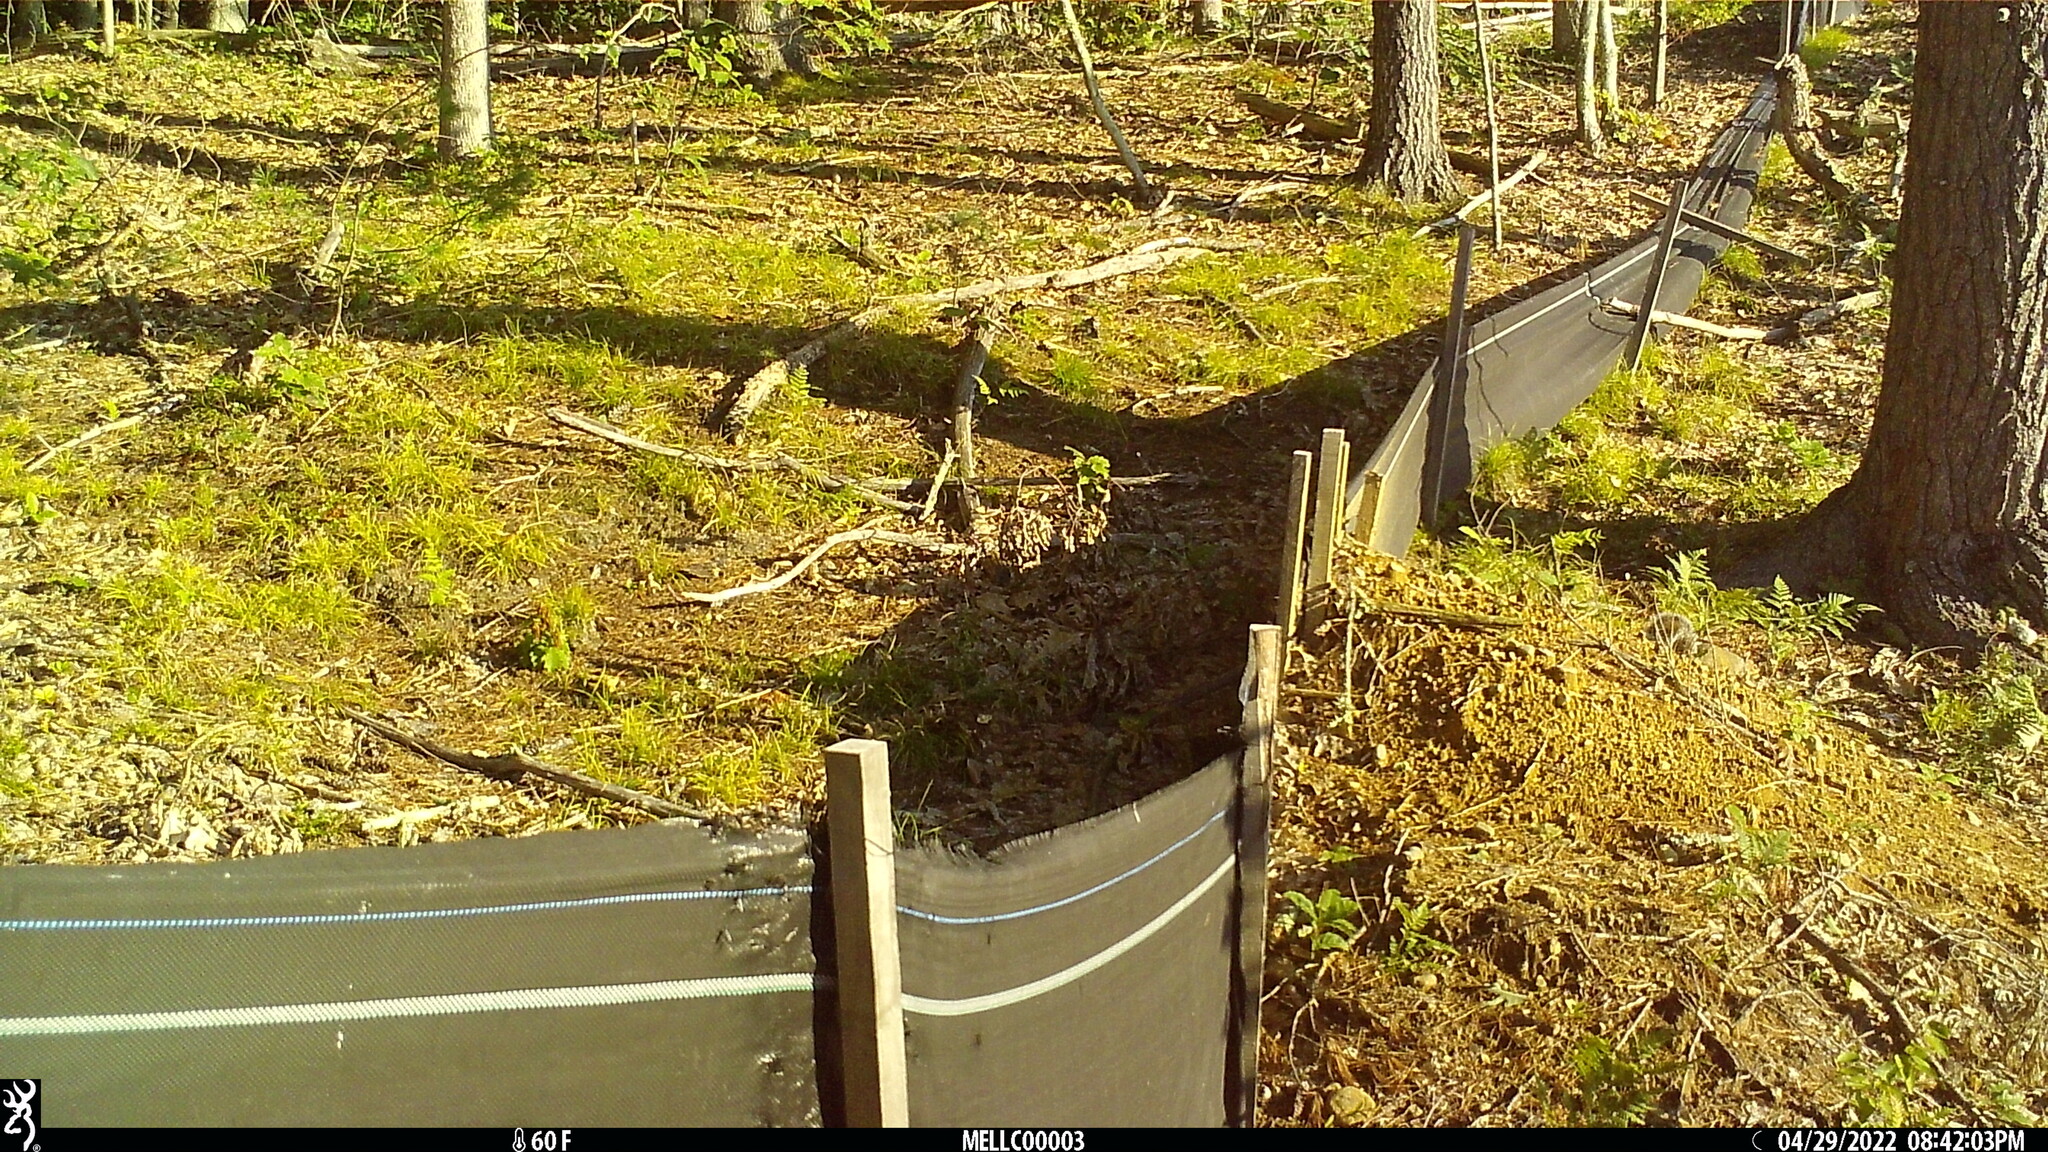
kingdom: Animalia
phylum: Chordata
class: Mammalia
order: Rodentia
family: Sciuridae
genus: Sciurus
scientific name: Sciurus carolinensis
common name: Eastern gray squirrel
